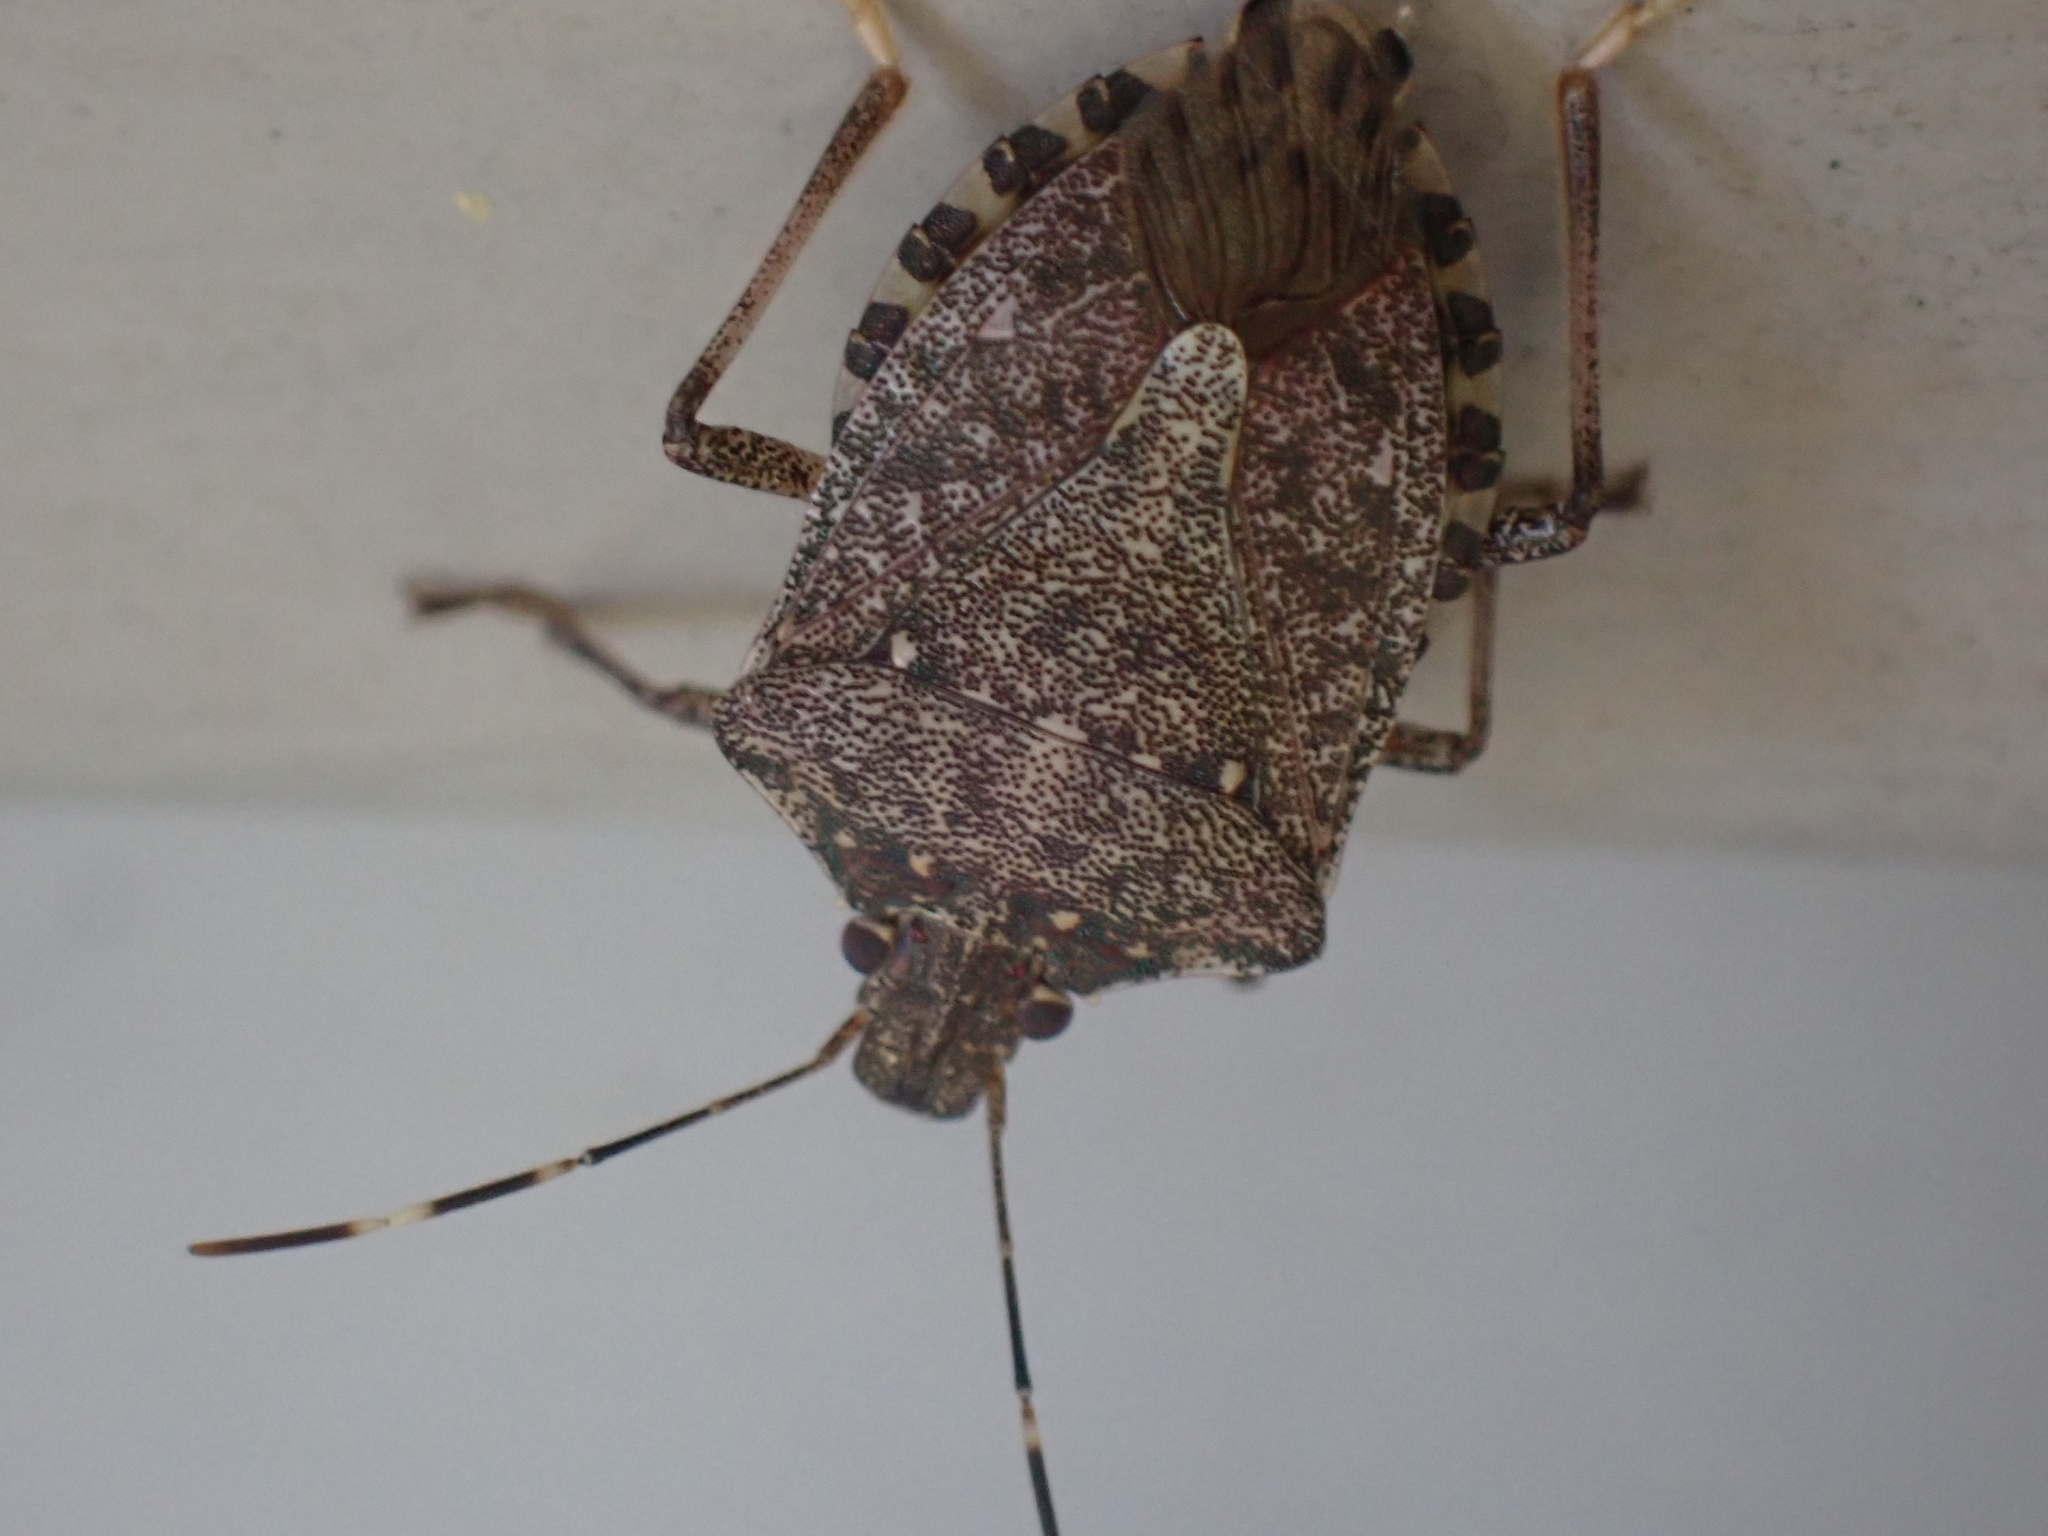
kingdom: Animalia
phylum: Arthropoda
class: Insecta
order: Hemiptera
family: Pentatomidae
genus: Halyomorpha
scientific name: Halyomorpha halys
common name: Brown marmorated stink bug
